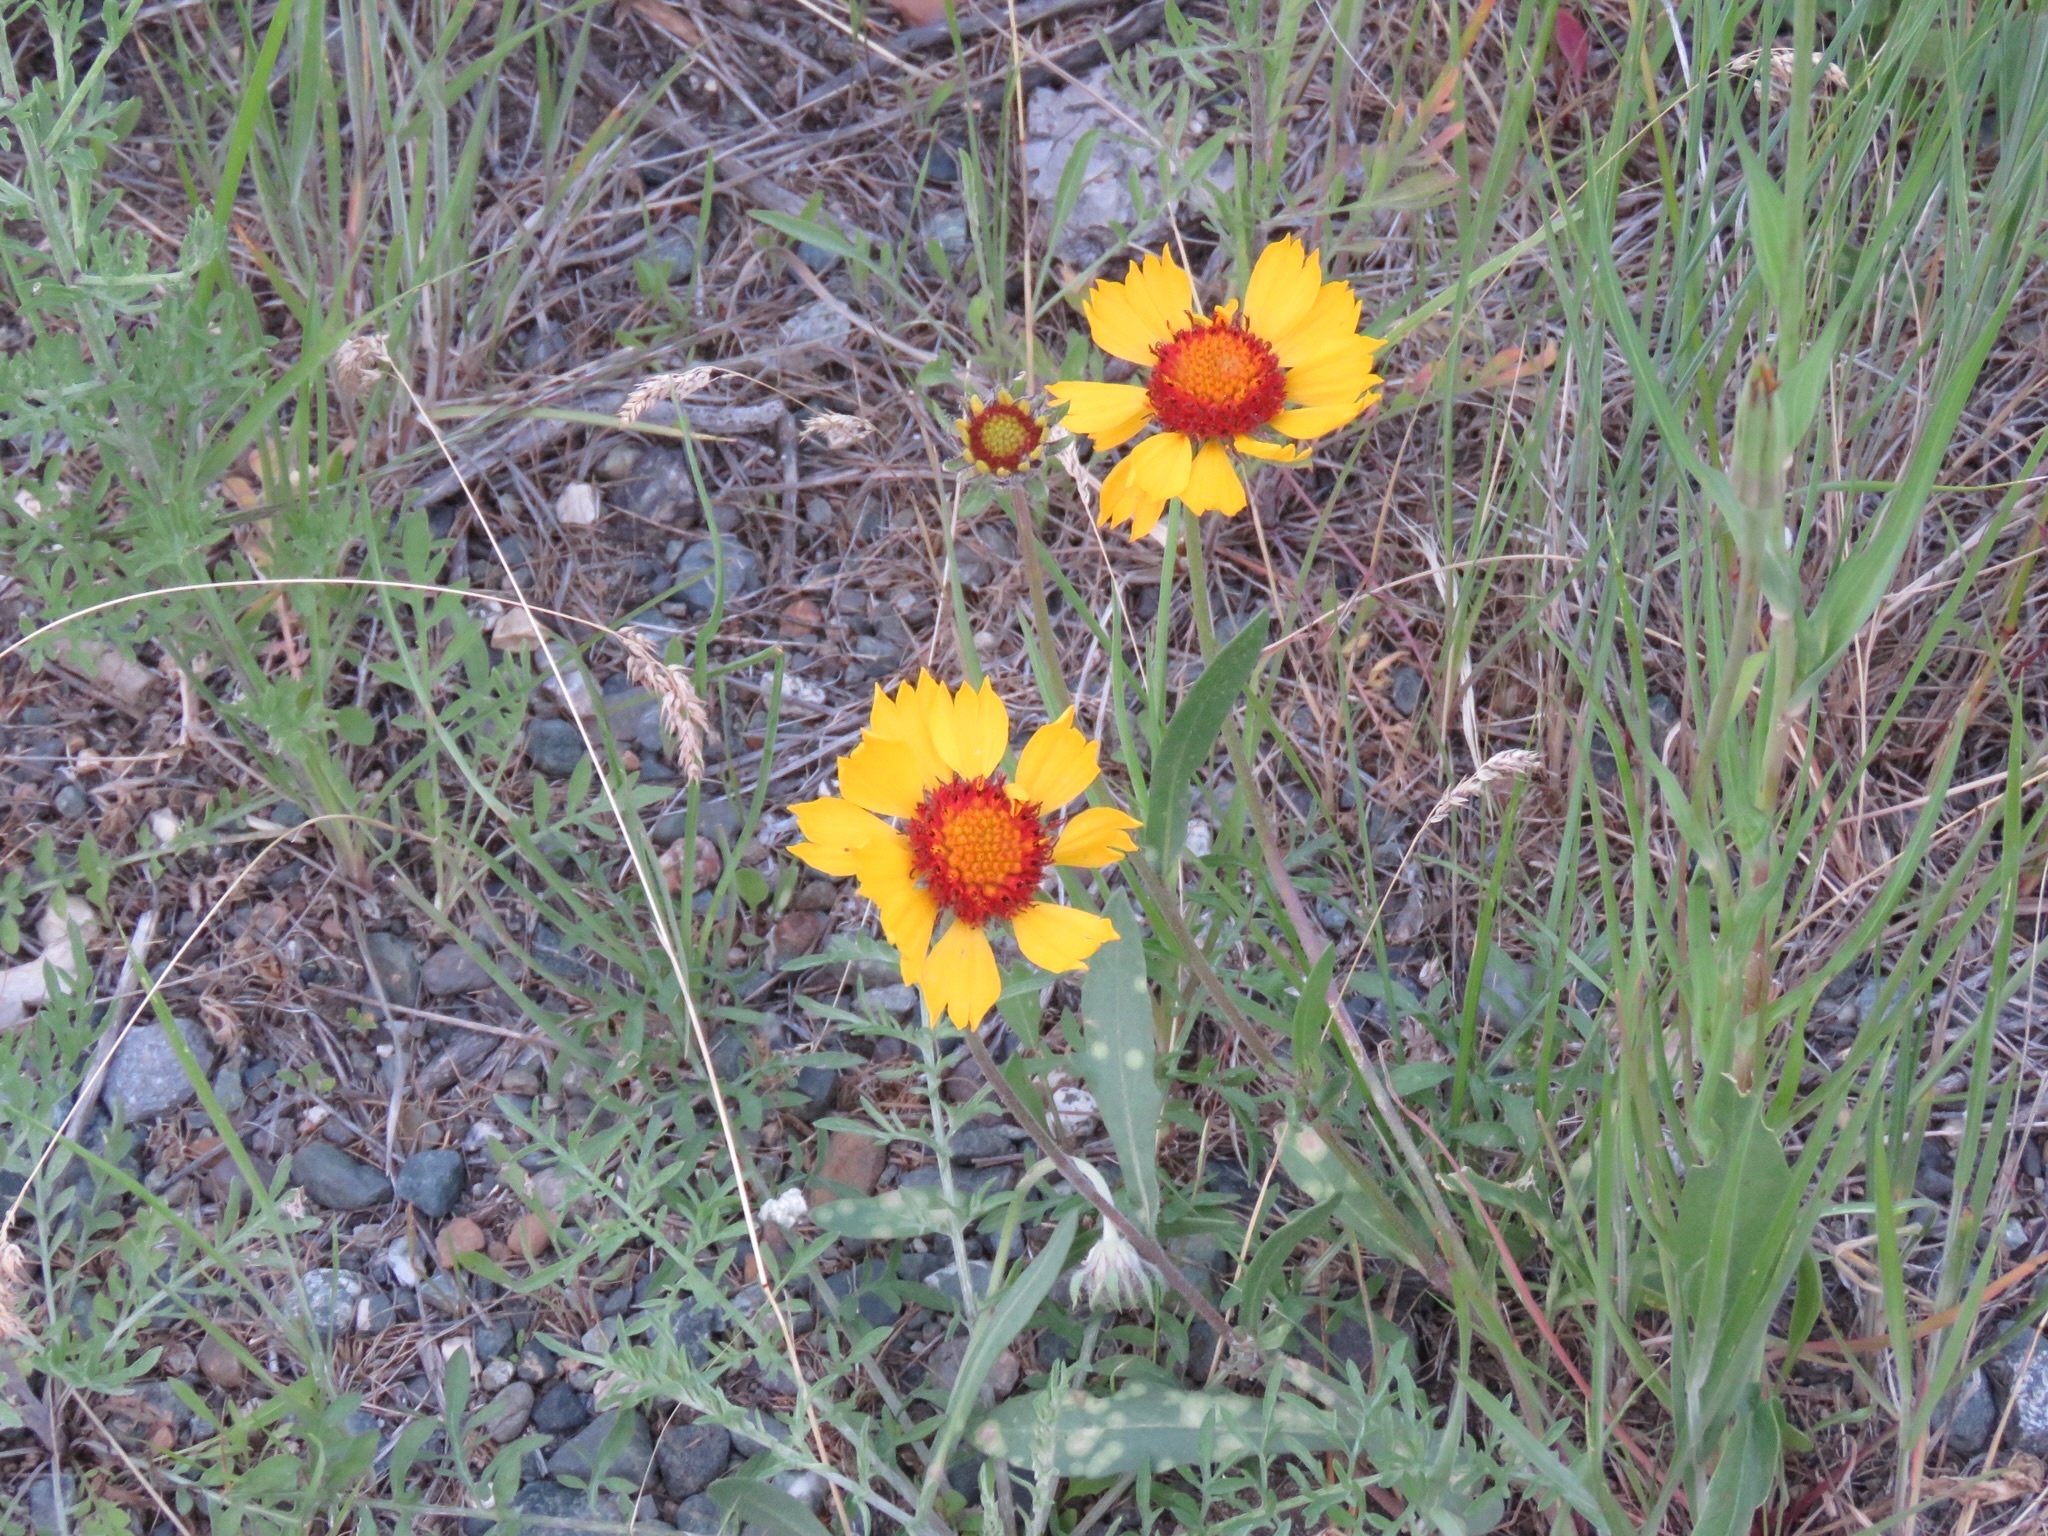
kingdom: Plantae
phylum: Tracheophyta
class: Magnoliopsida
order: Asterales
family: Asteraceae
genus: Gaillardia
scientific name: Gaillardia aristata
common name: Blanket-flower
